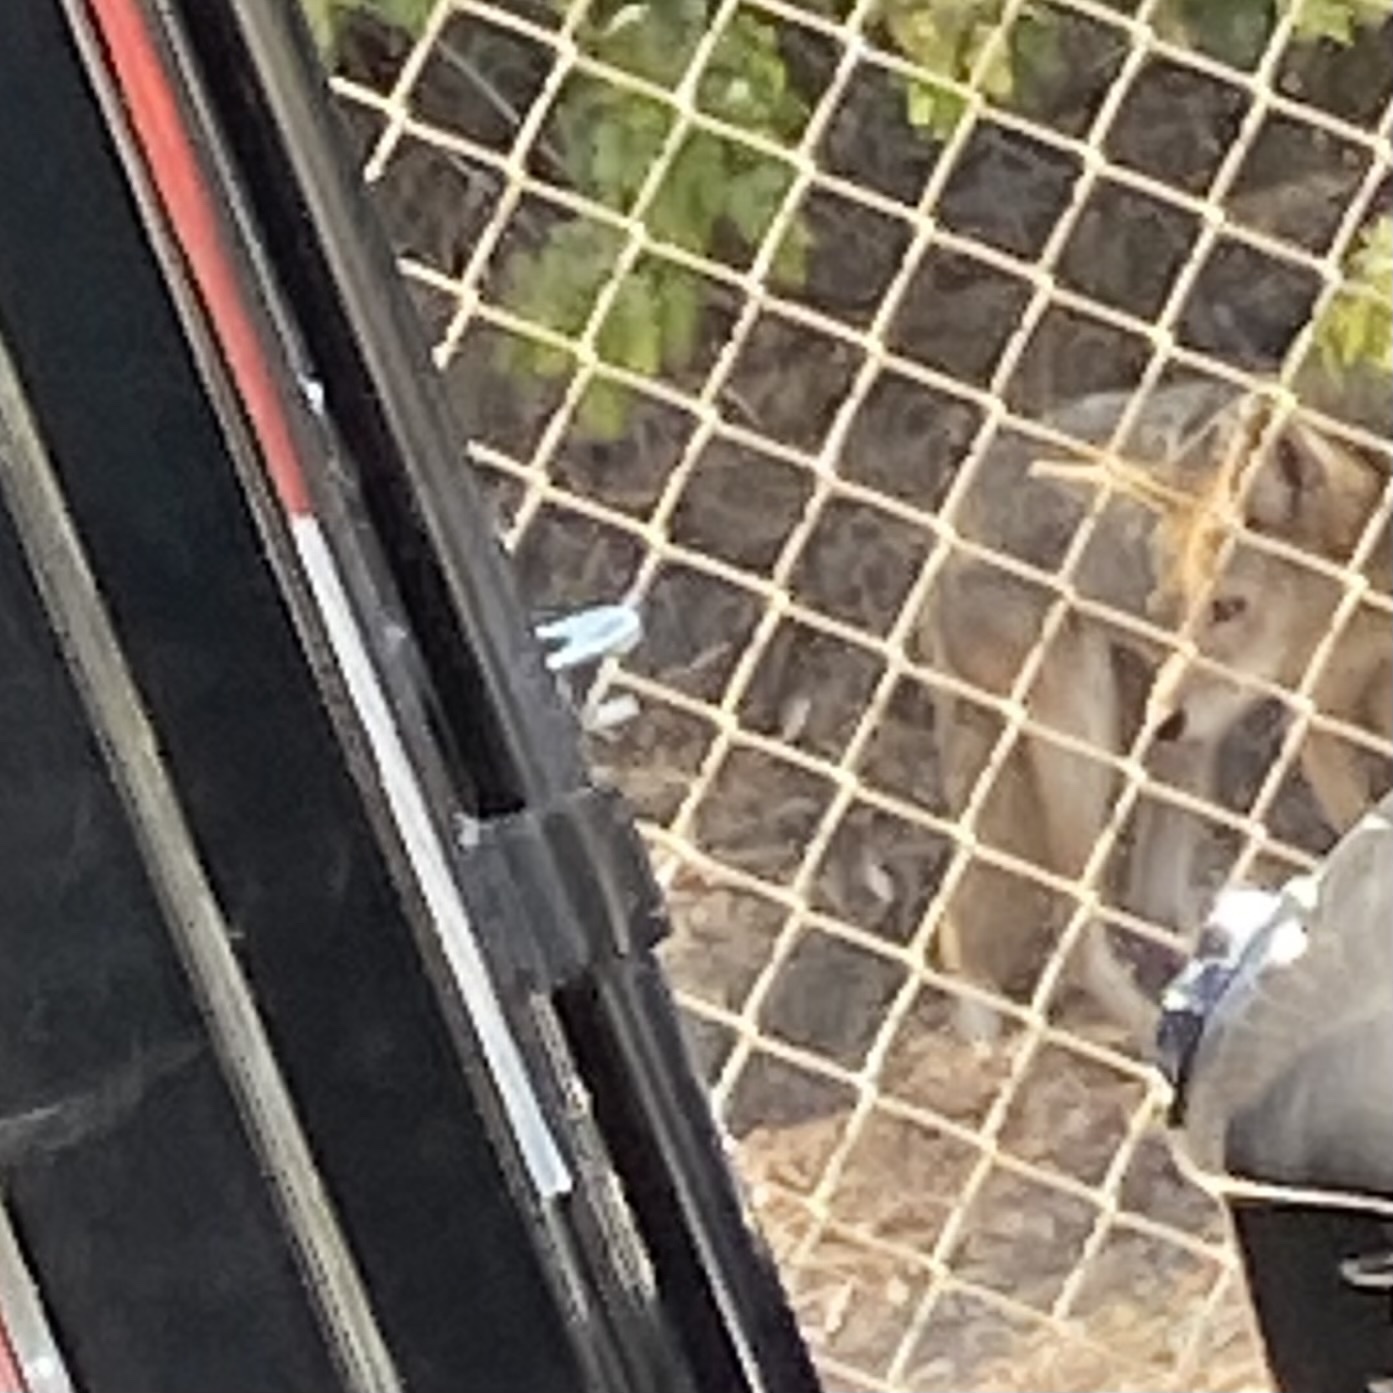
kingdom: Animalia
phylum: Chordata
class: Mammalia
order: Carnivora
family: Canidae
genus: Canis
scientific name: Canis latrans
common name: Coyote
